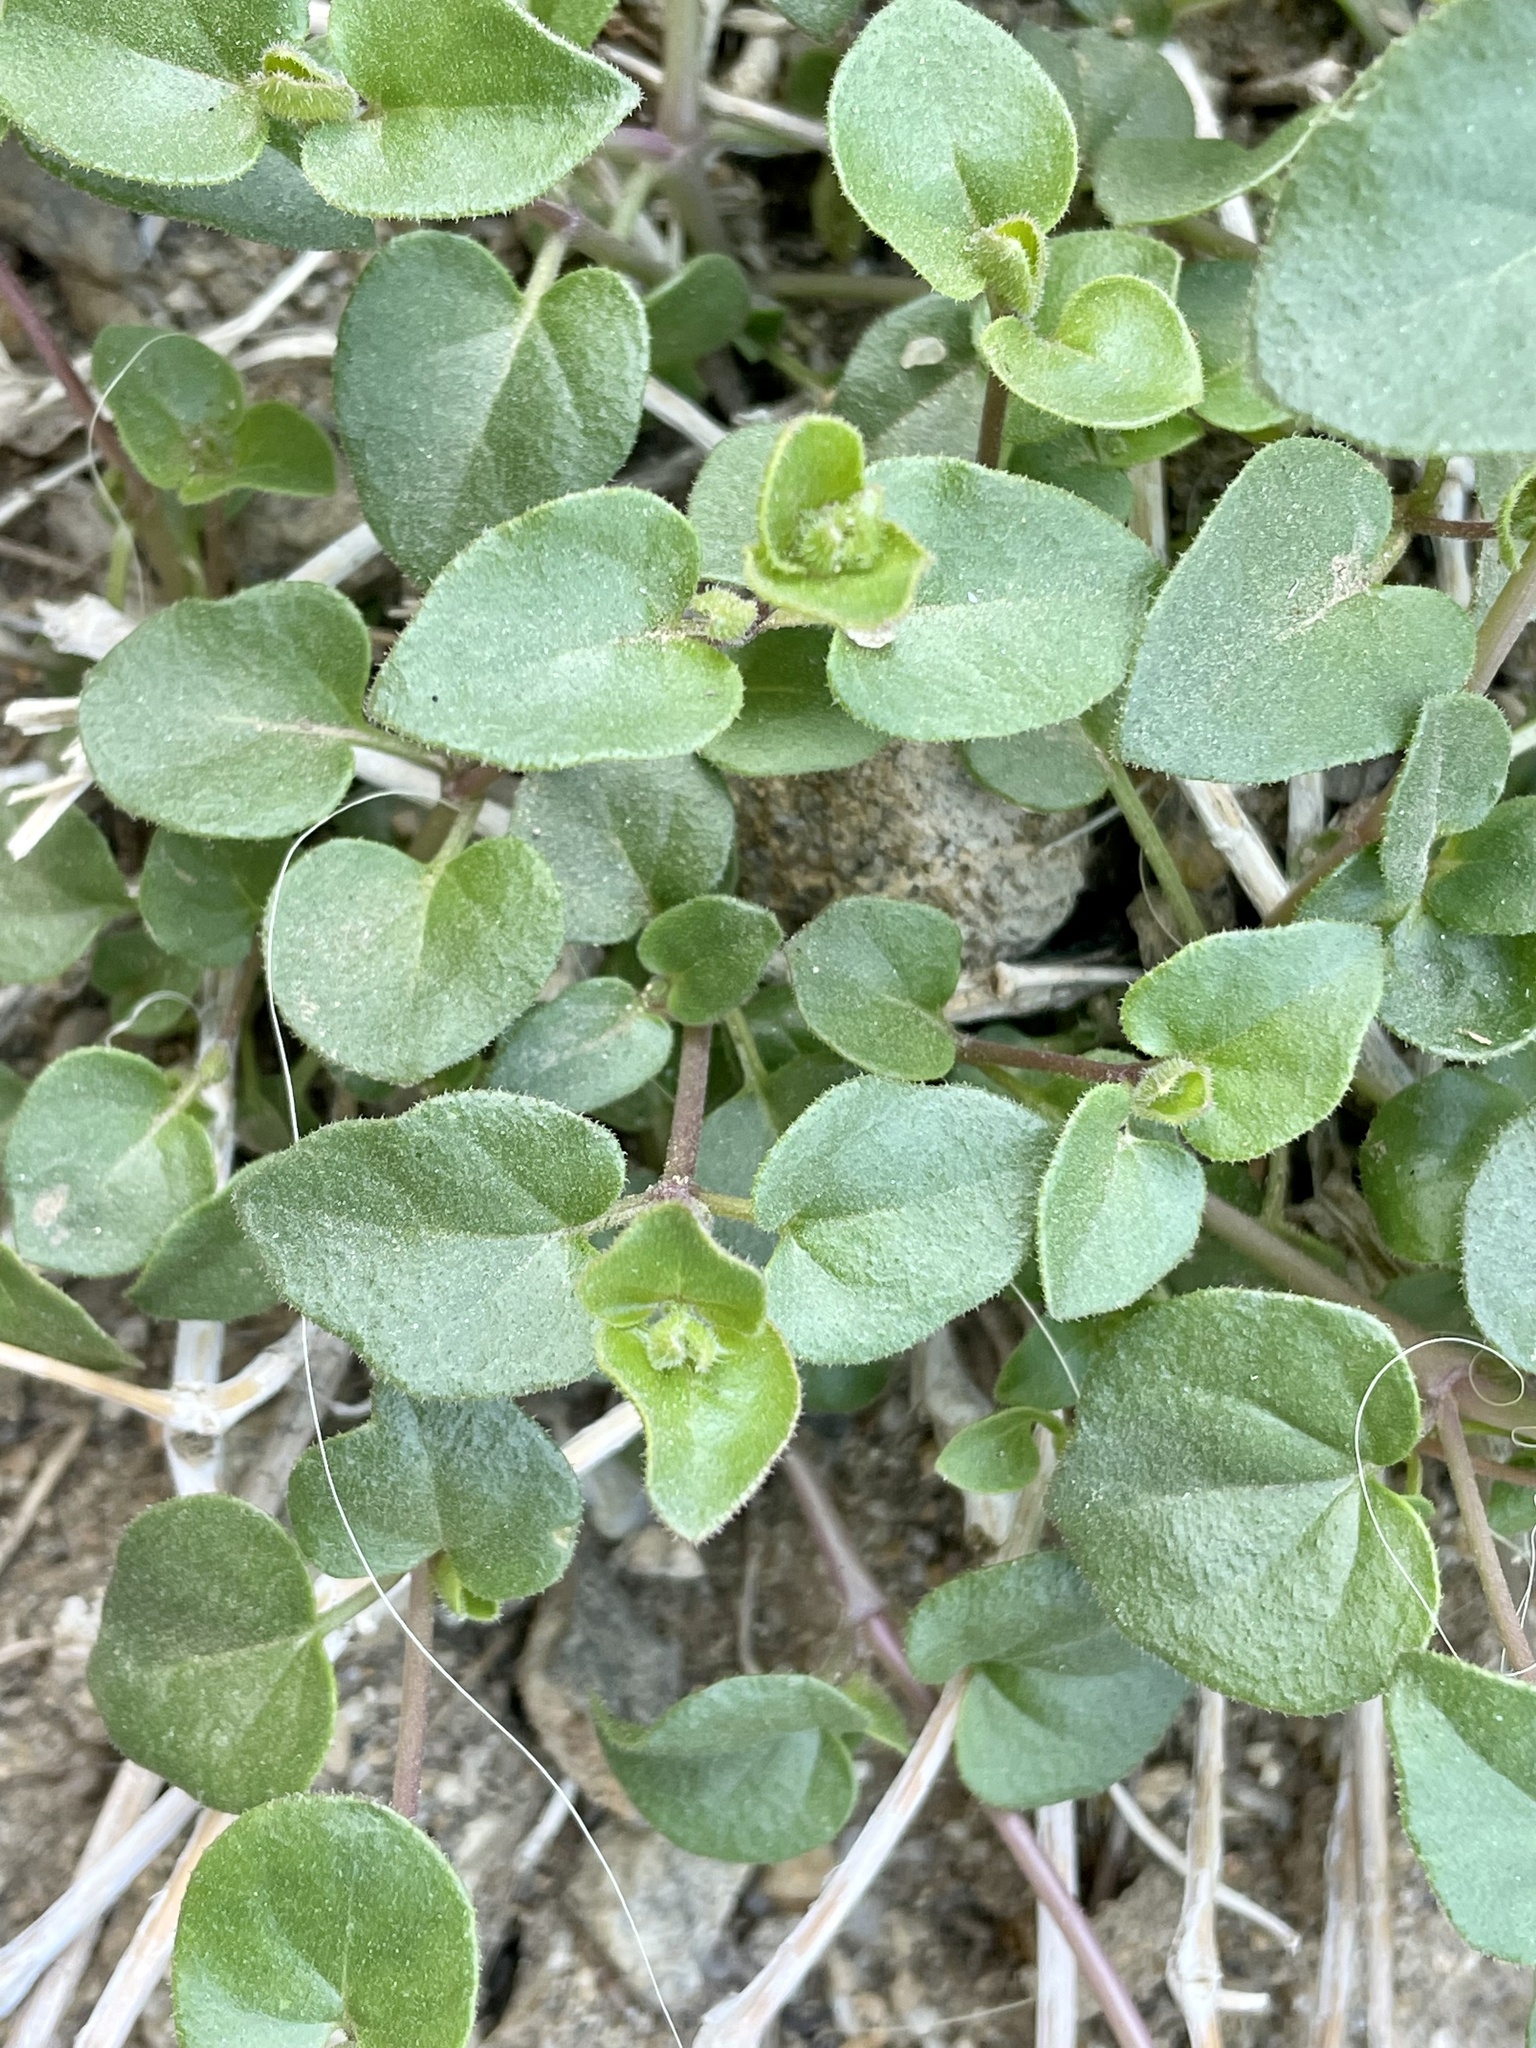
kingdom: Plantae
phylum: Tracheophyta
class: Magnoliopsida
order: Caryophyllales
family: Nyctaginaceae
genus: Mirabilis
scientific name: Mirabilis laevis
